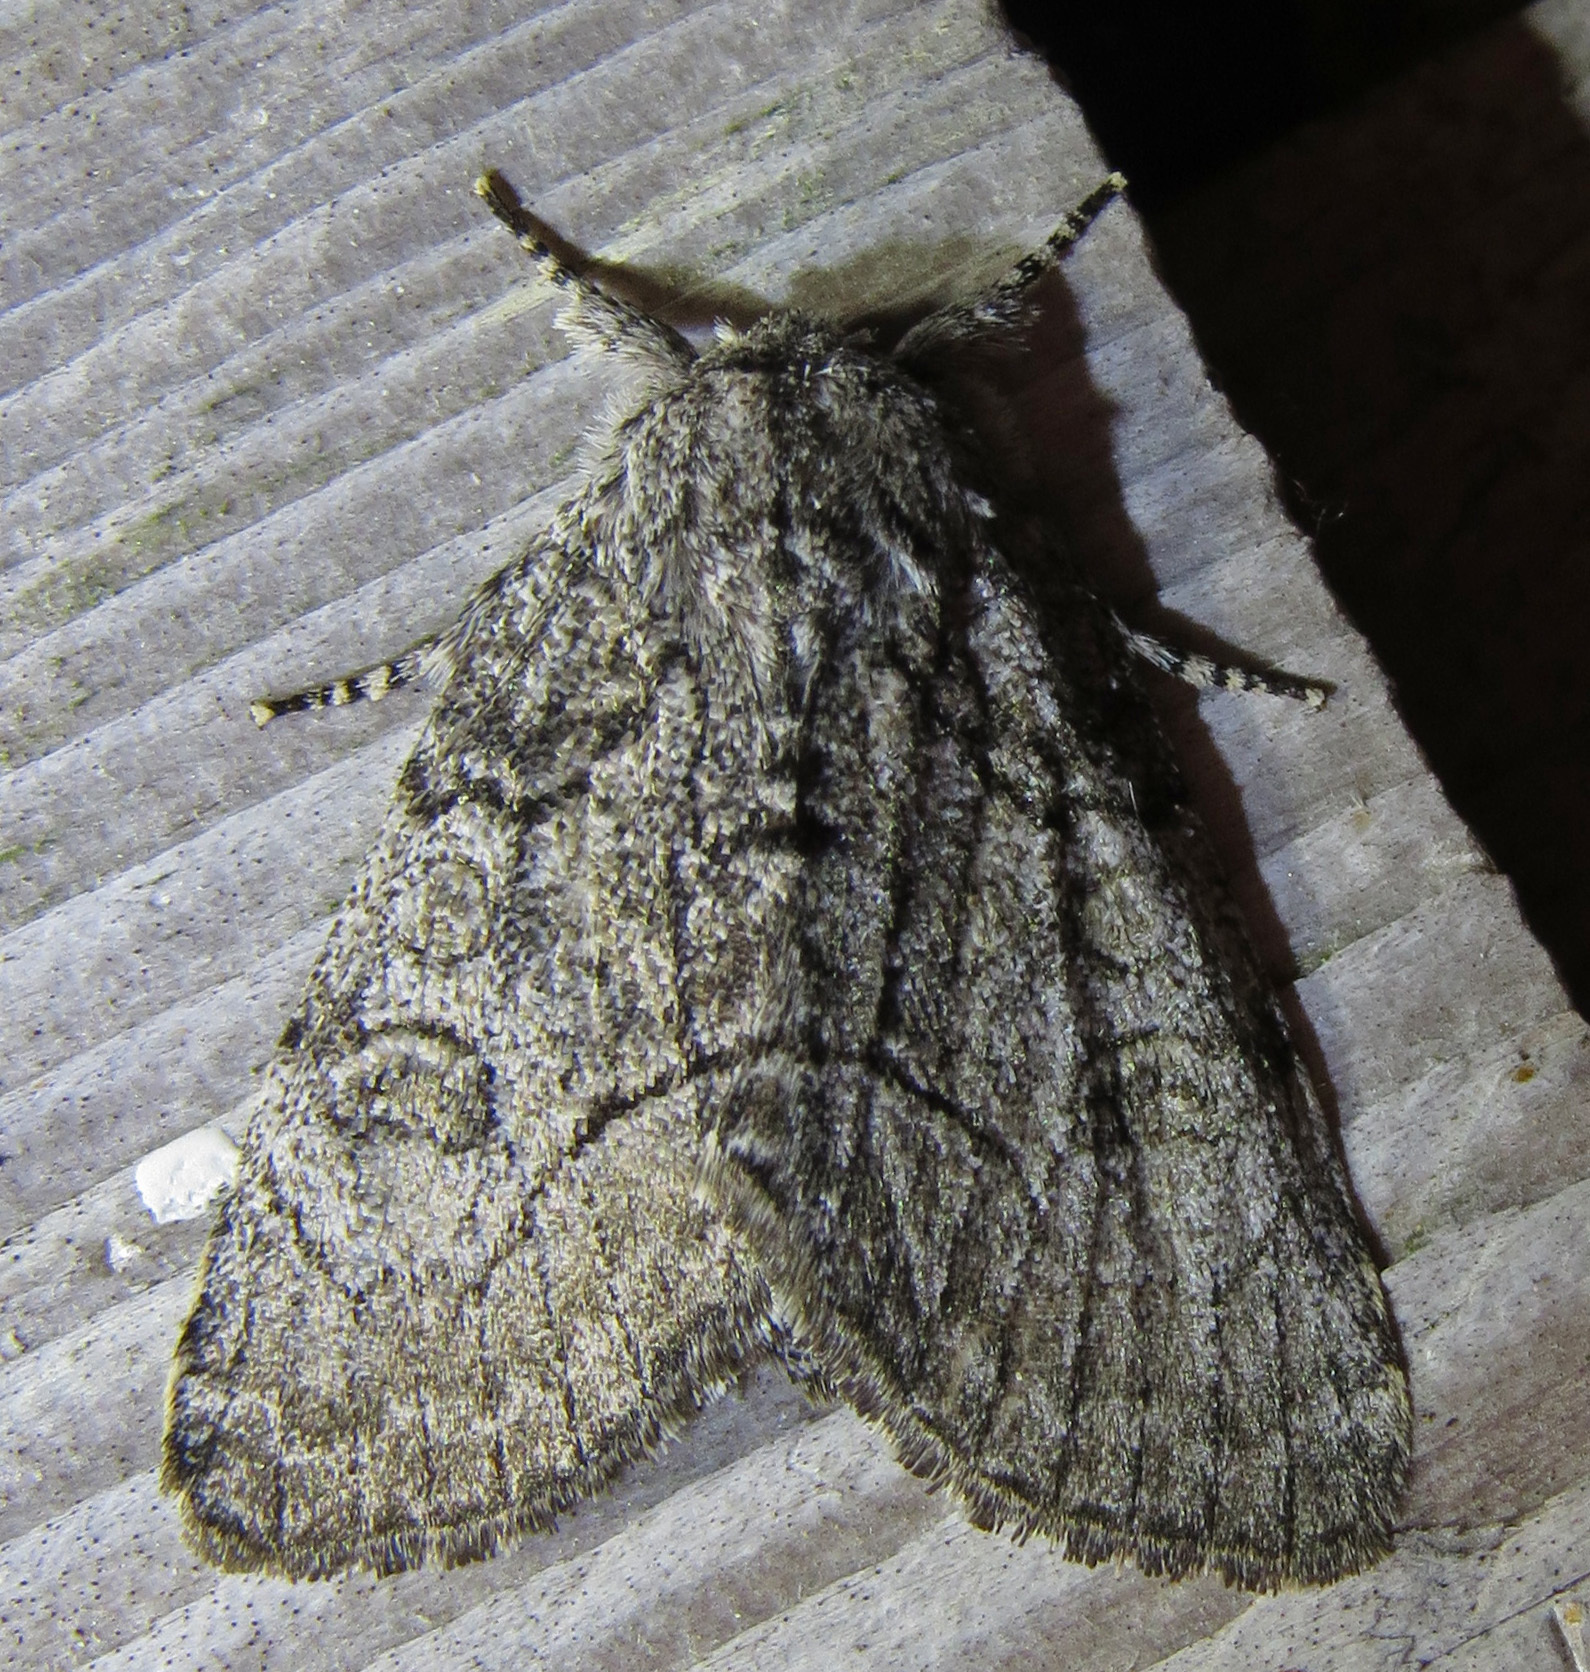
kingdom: Animalia
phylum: Arthropoda
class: Insecta
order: Lepidoptera
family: Noctuidae
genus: Raphia
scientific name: Raphia frater
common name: Brother
